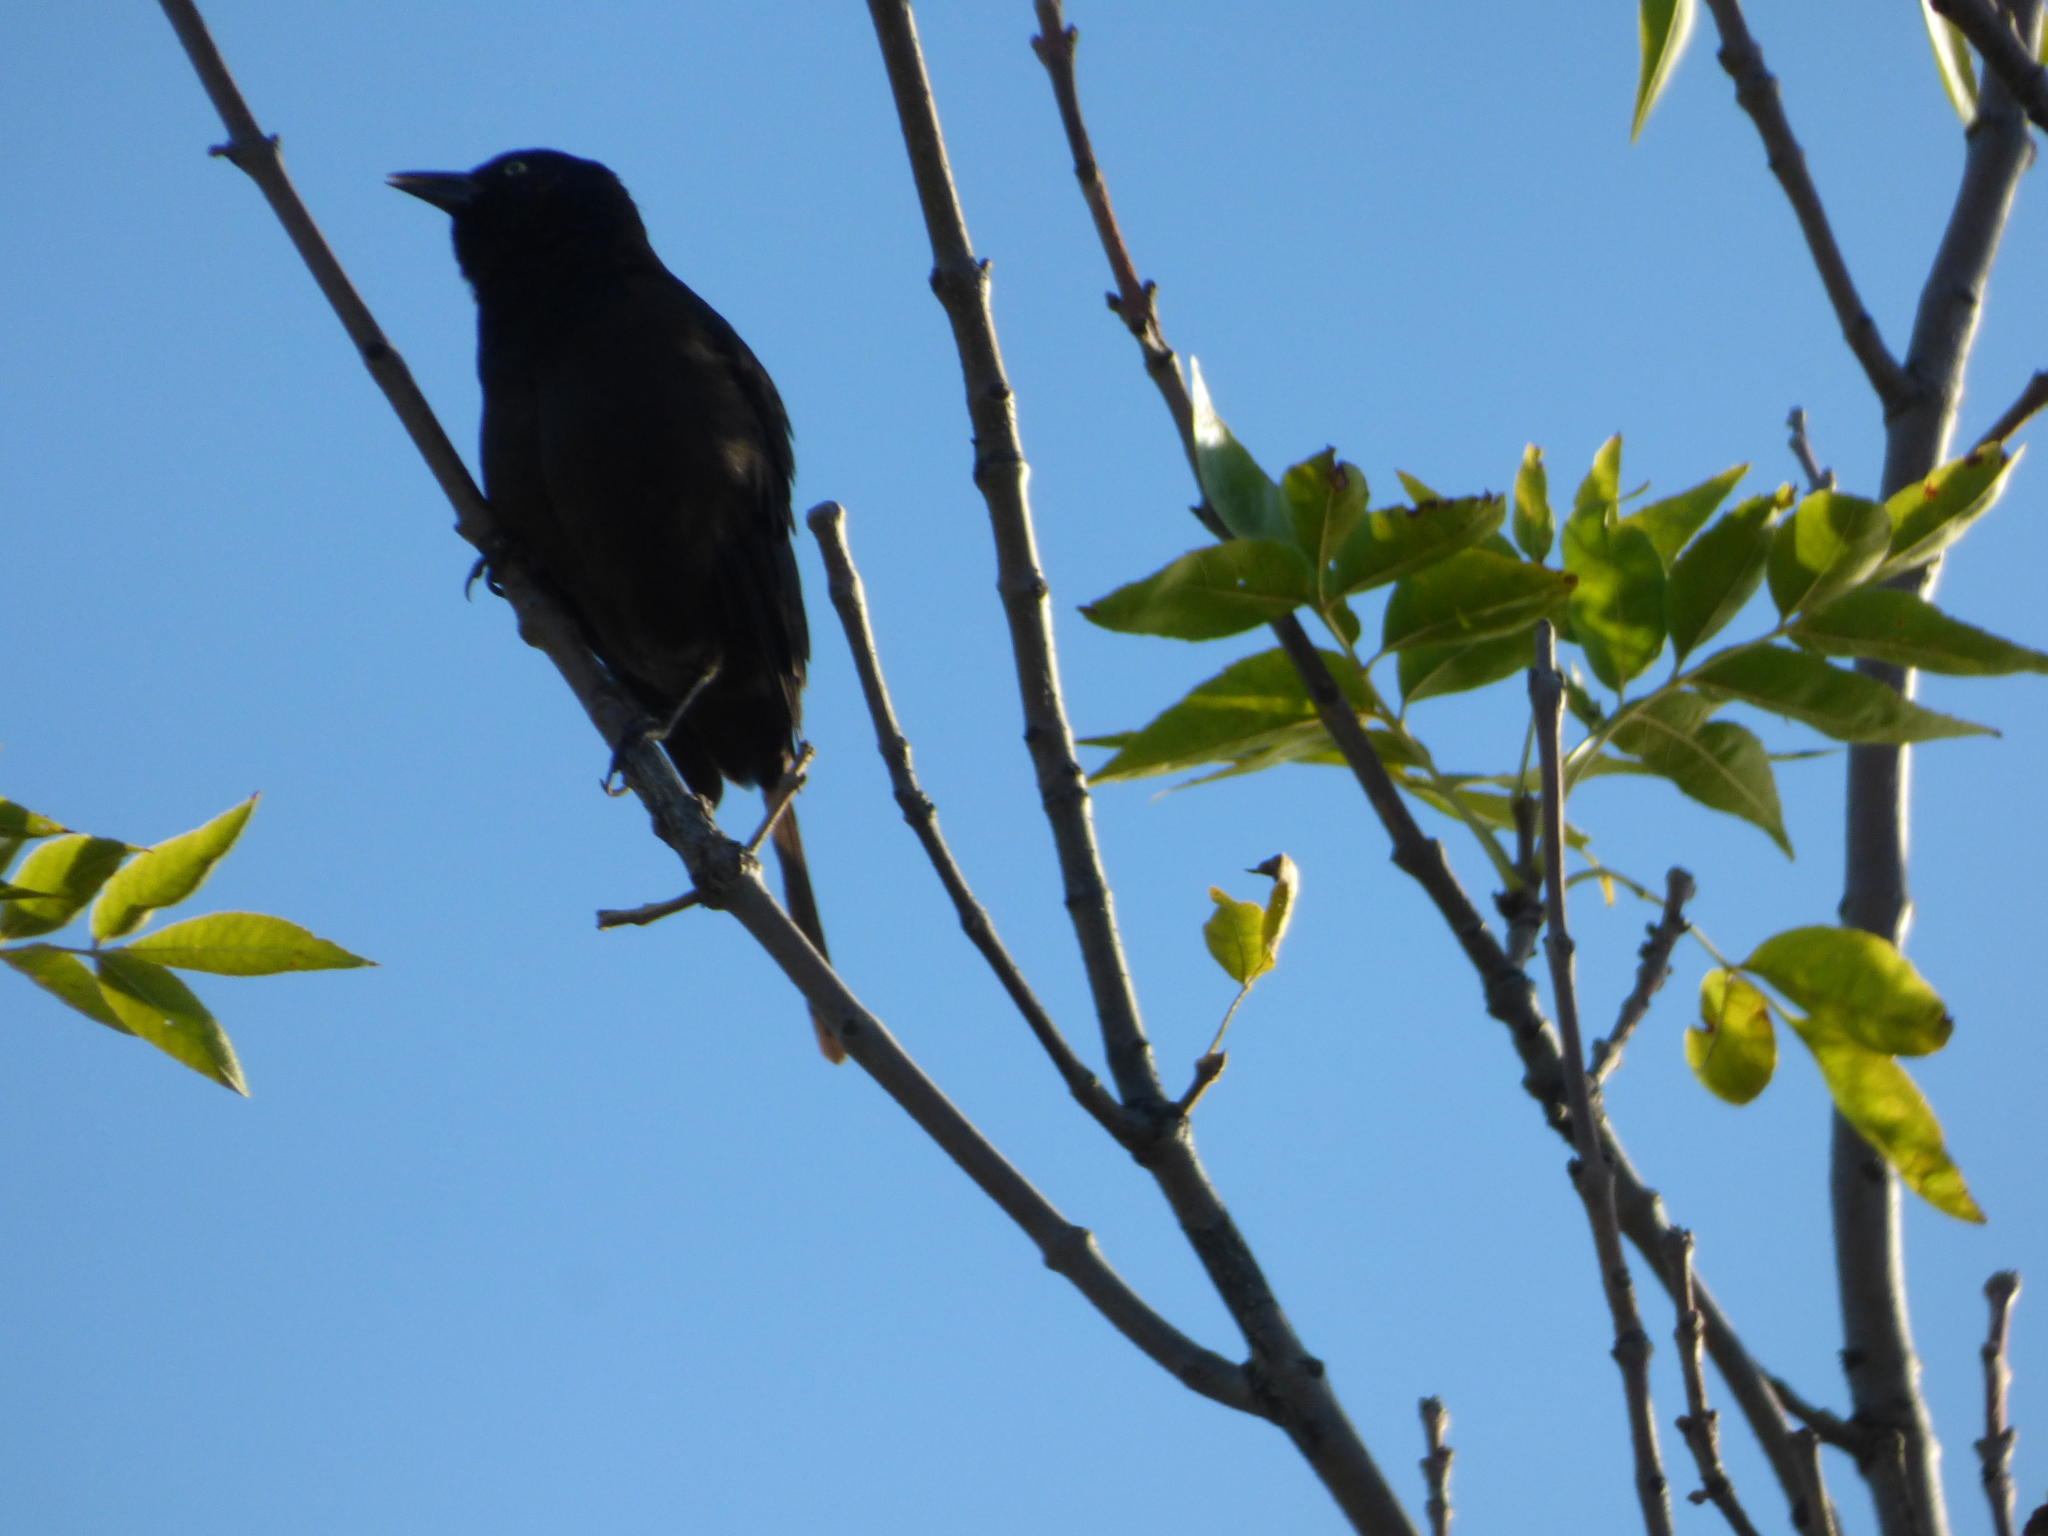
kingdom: Animalia
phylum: Chordata
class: Aves
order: Passeriformes
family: Icteridae
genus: Quiscalus
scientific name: Quiscalus quiscula
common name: Common grackle
